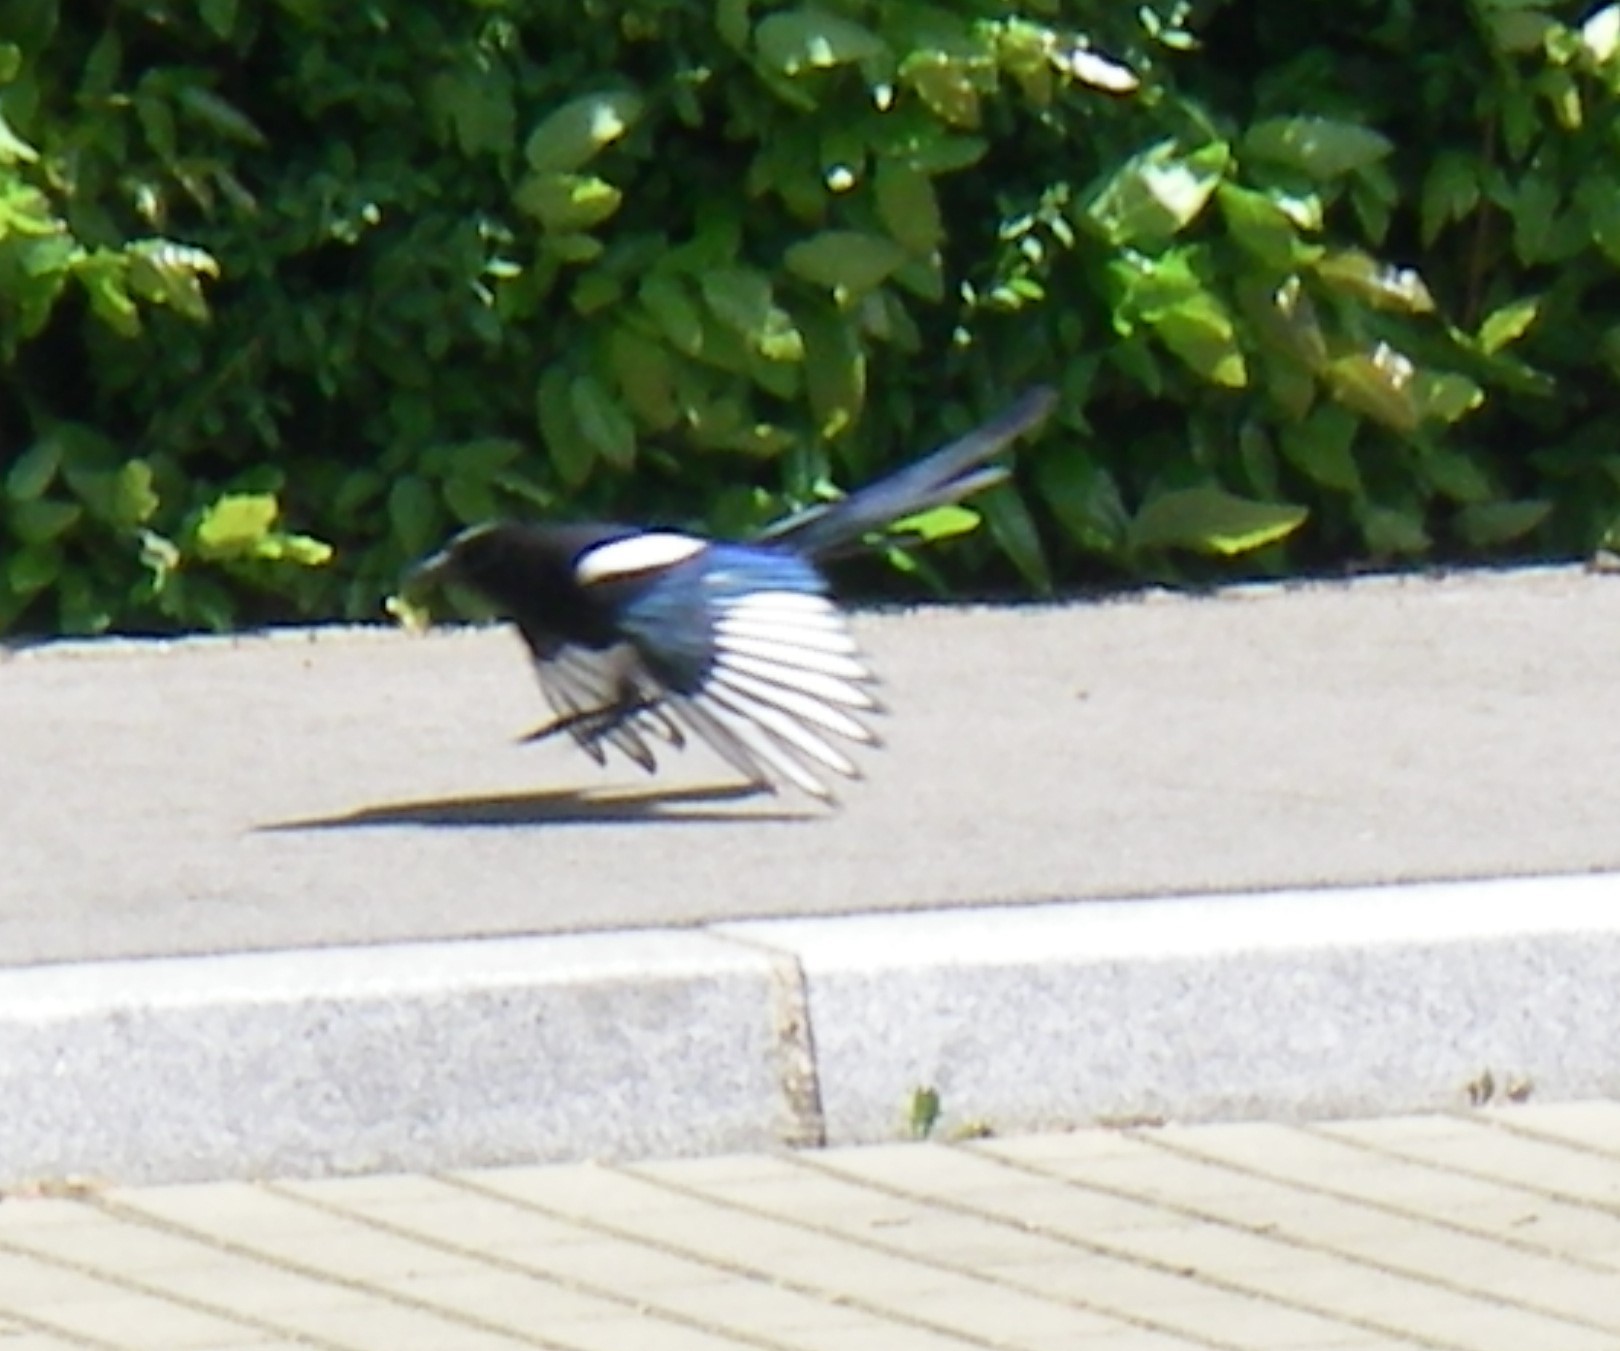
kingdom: Animalia
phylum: Chordata
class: Aves
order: Passeriformes
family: Corvidae
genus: Pica
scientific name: Pica pica
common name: Eurasian magpie
